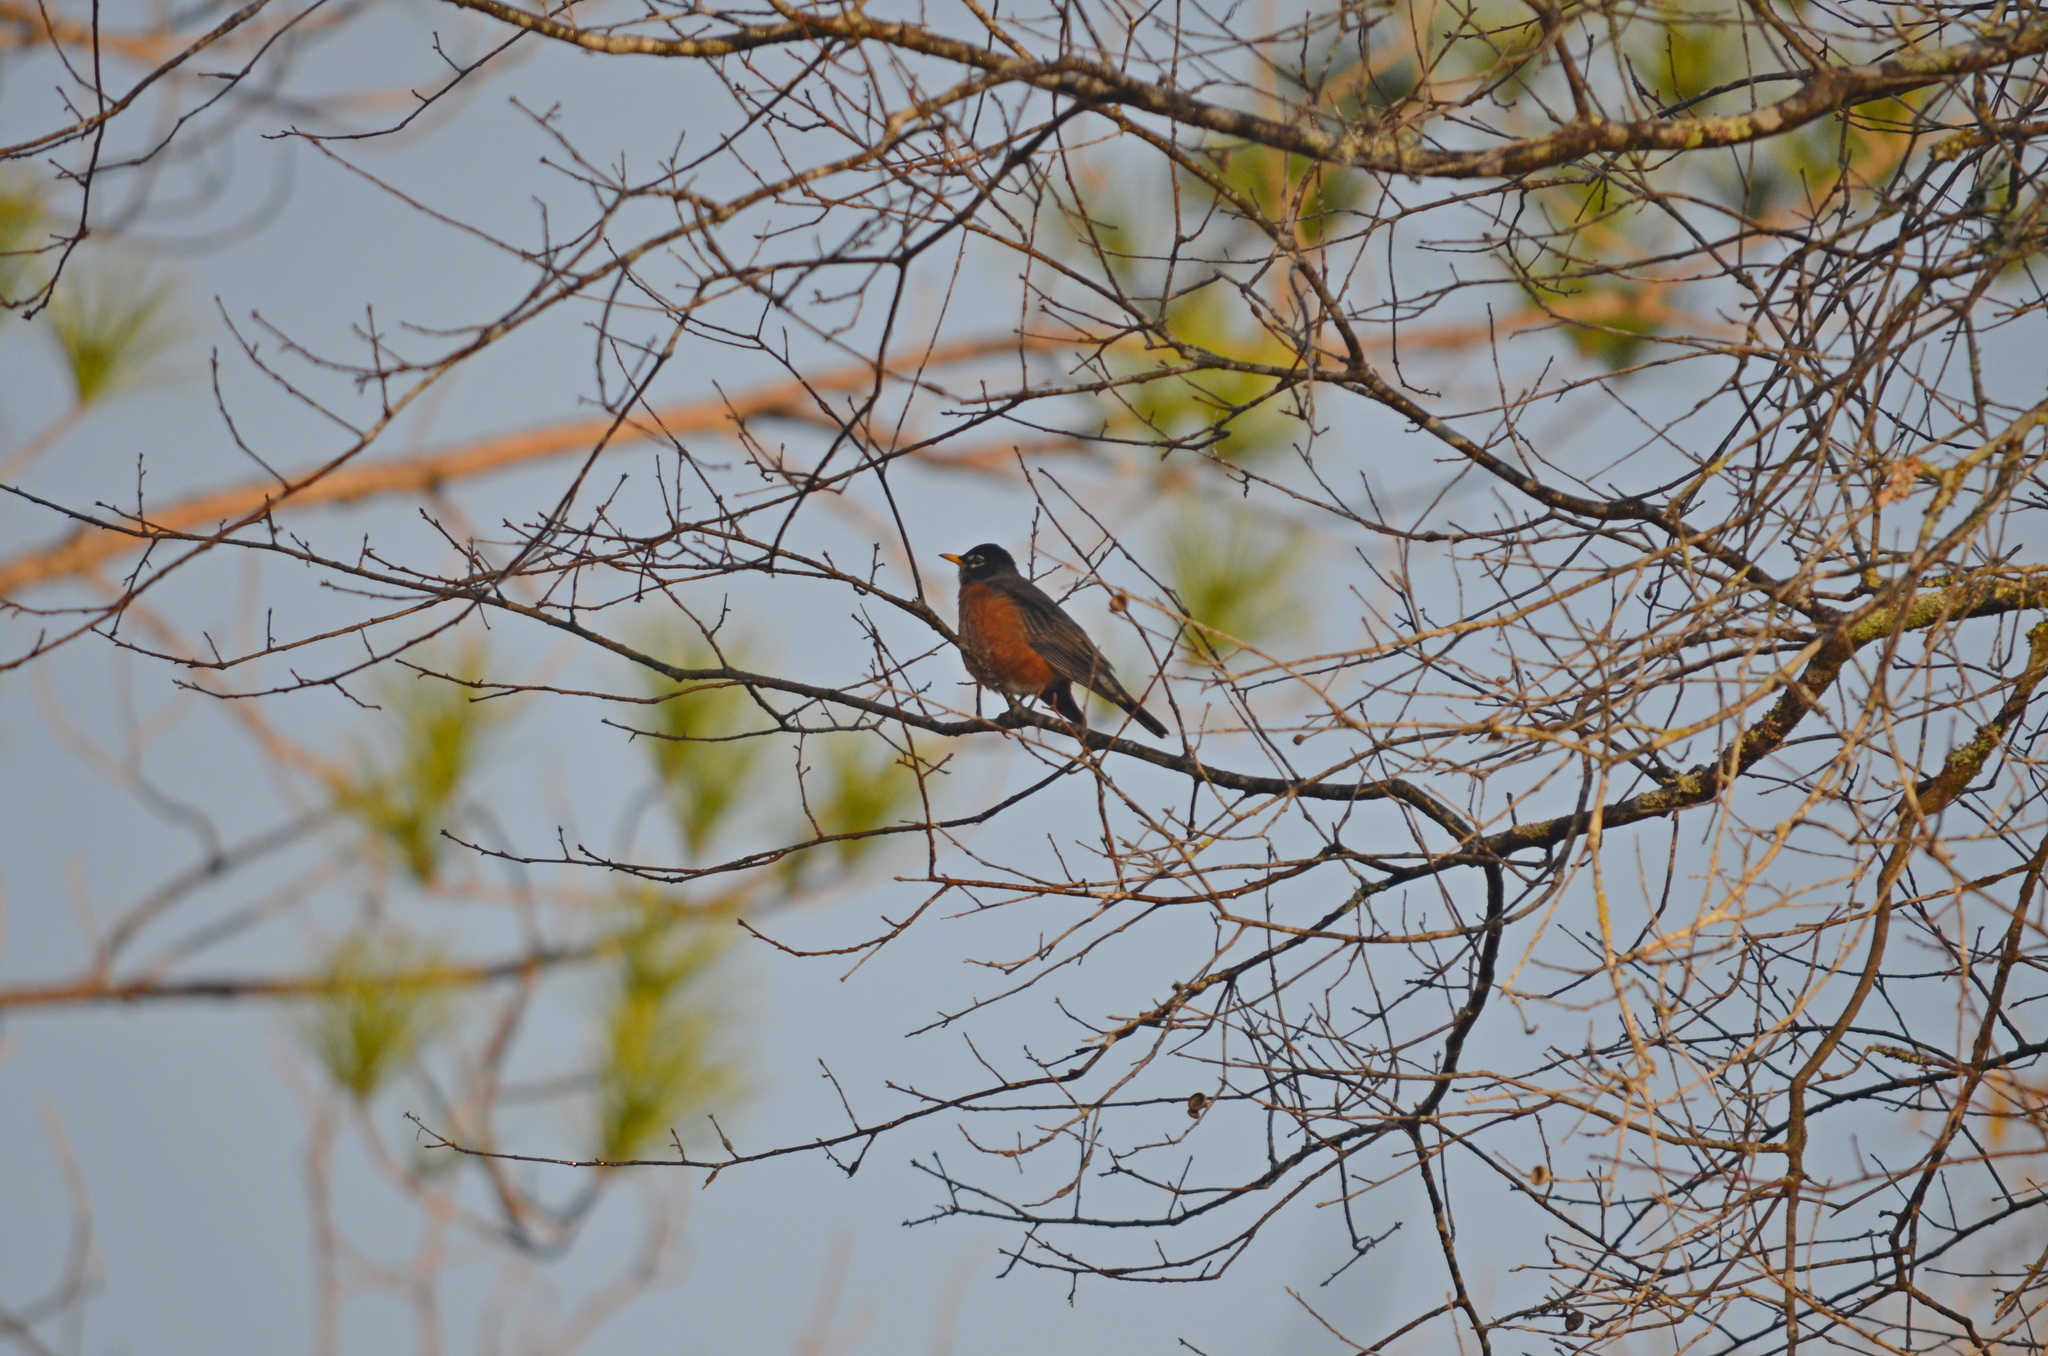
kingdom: Animalia
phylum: Chordata
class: Aves
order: Passeriformes
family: Turdidae
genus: Turdus
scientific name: Turdus migratorius
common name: American robin
